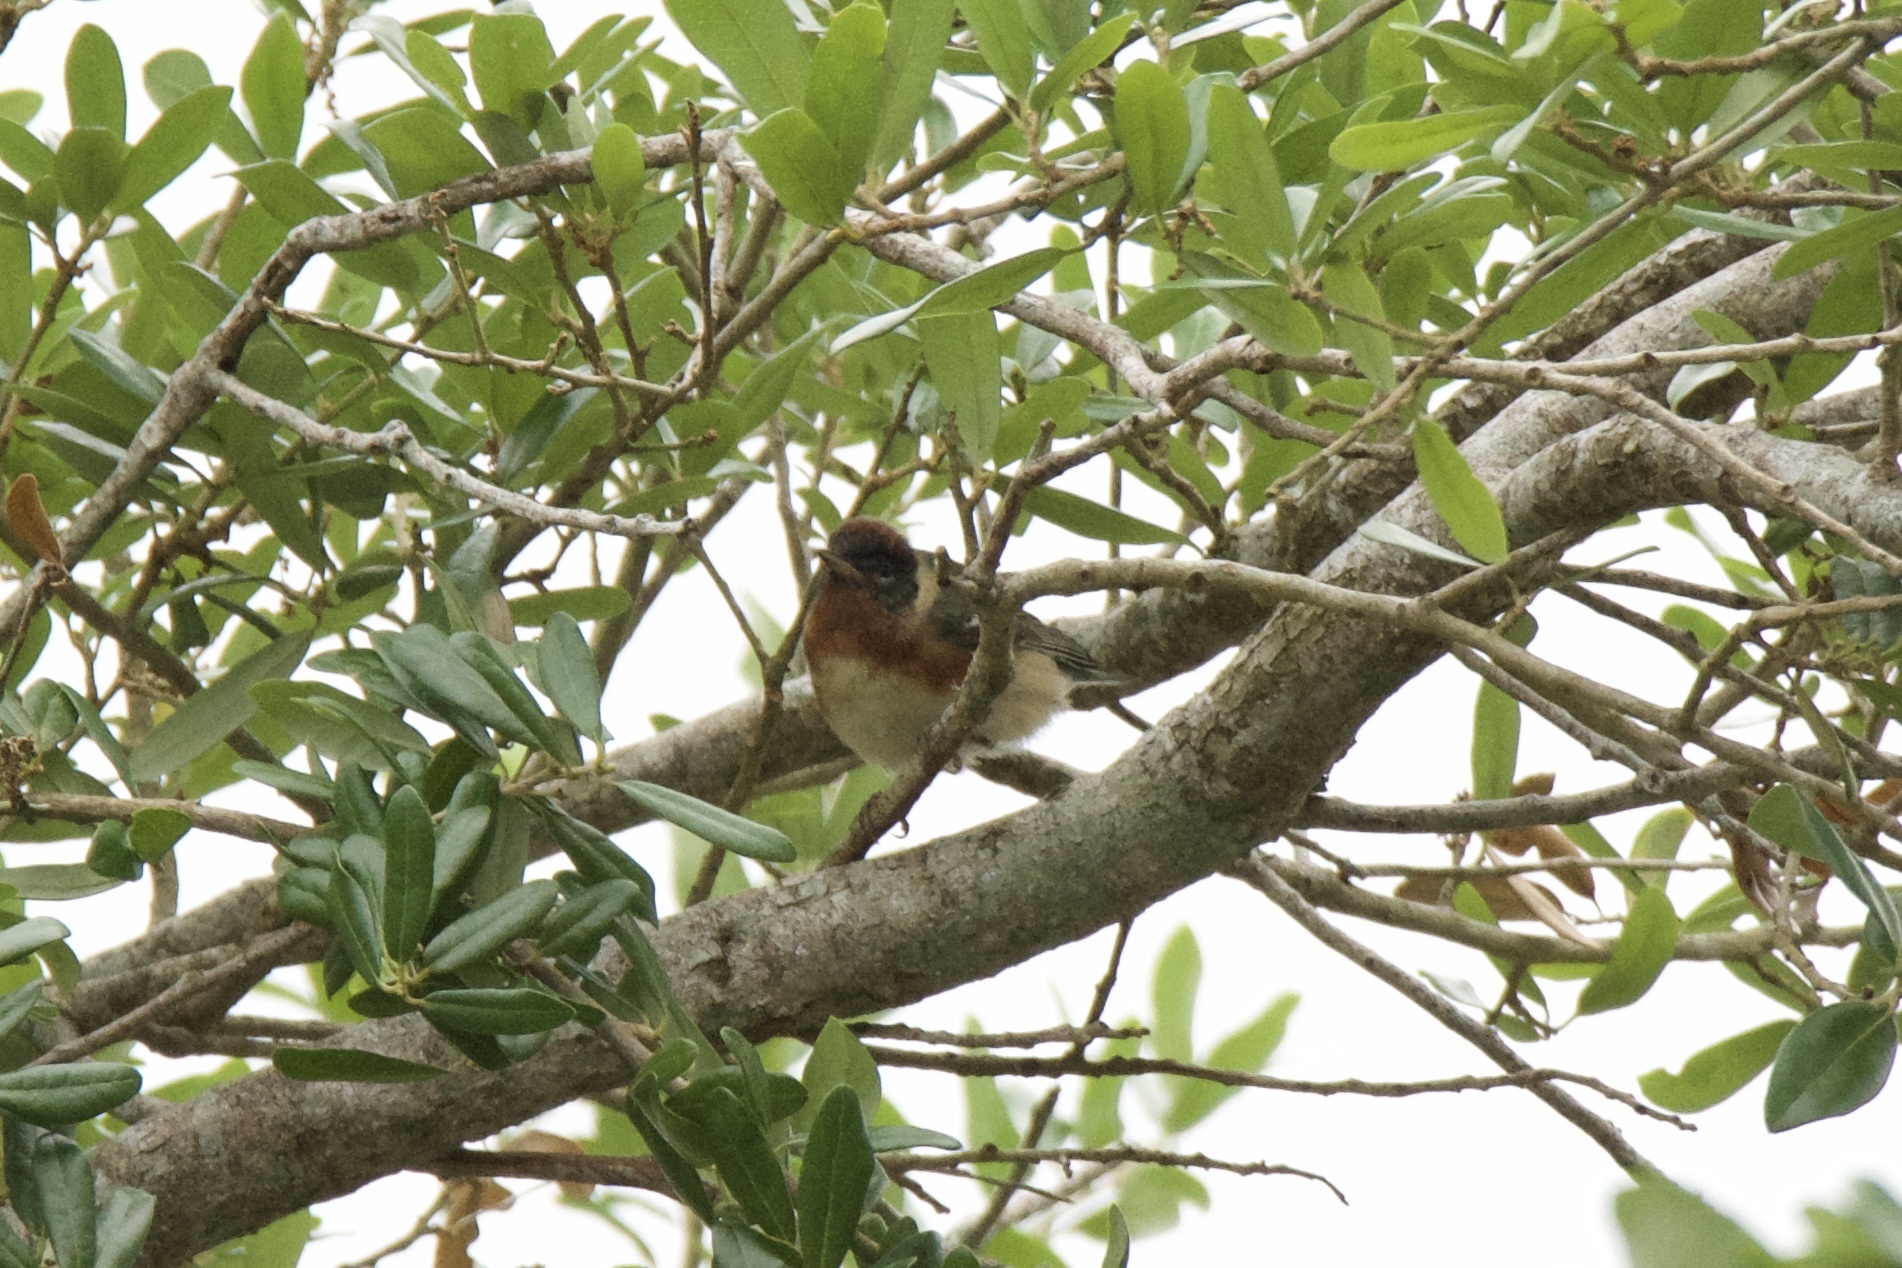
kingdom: Animalia
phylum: Chordata
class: Aves
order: Passeriformes
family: Parulidae
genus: Setophaga
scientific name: Setophaga castanea
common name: Bay-breasted warbler
